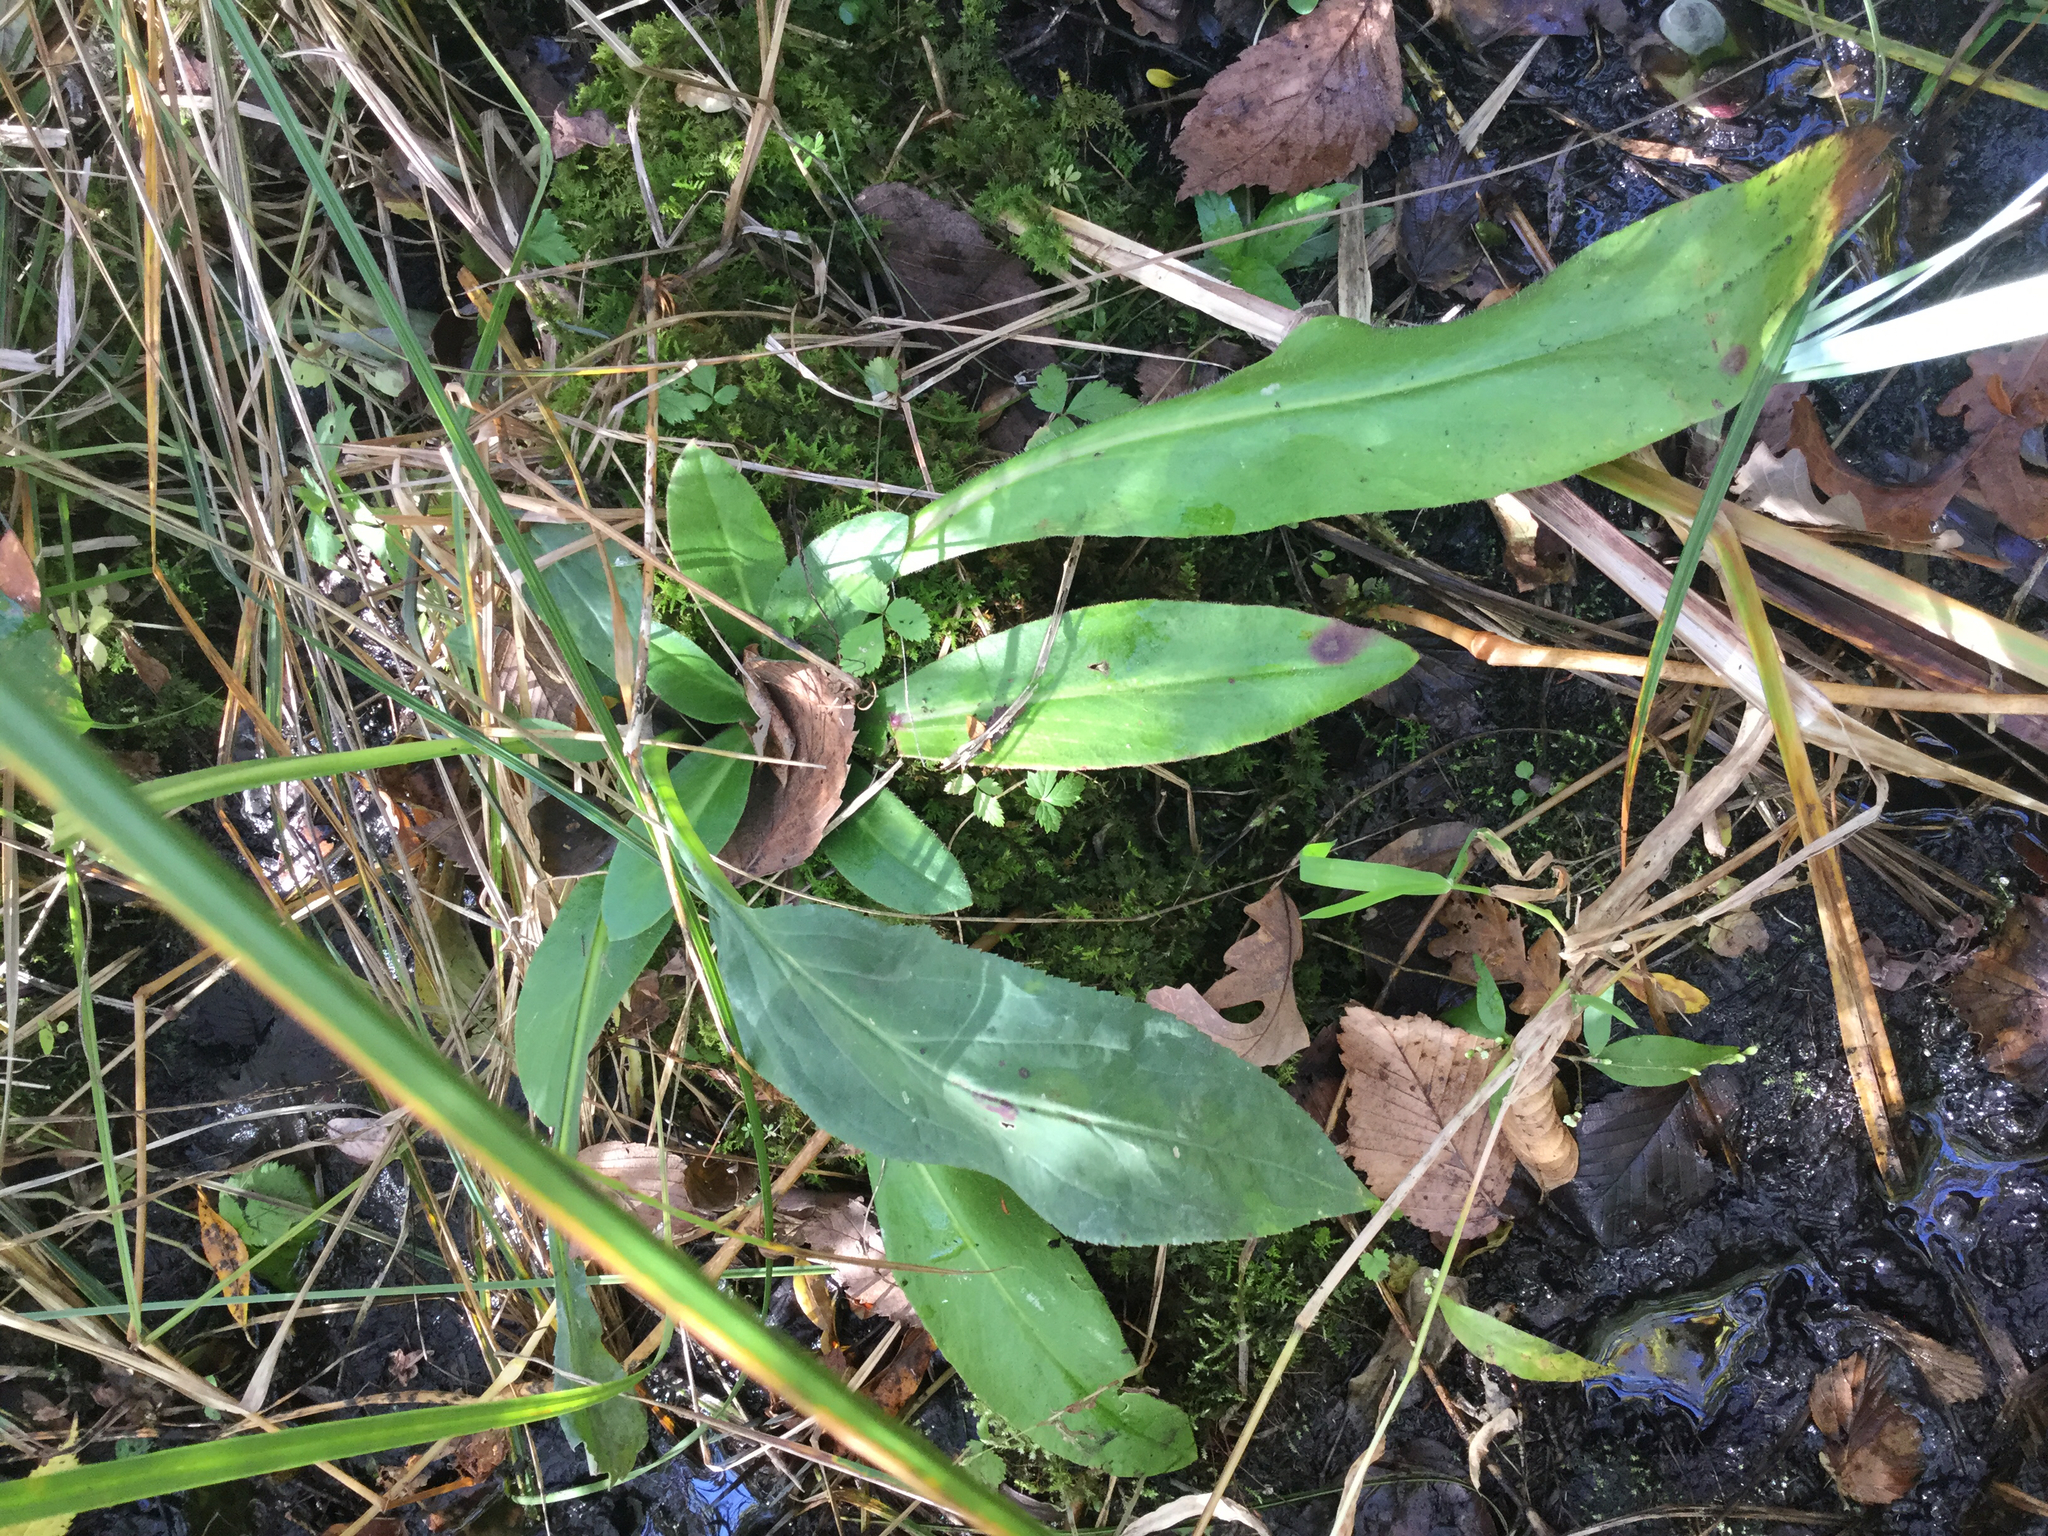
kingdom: Plantae
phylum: Tracheophyta
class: Magnoliopsida
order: Saxifragales
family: Saxifragaceae
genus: Micranthes
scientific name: Micranthes pensylvanica
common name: Marsh saxifrage
